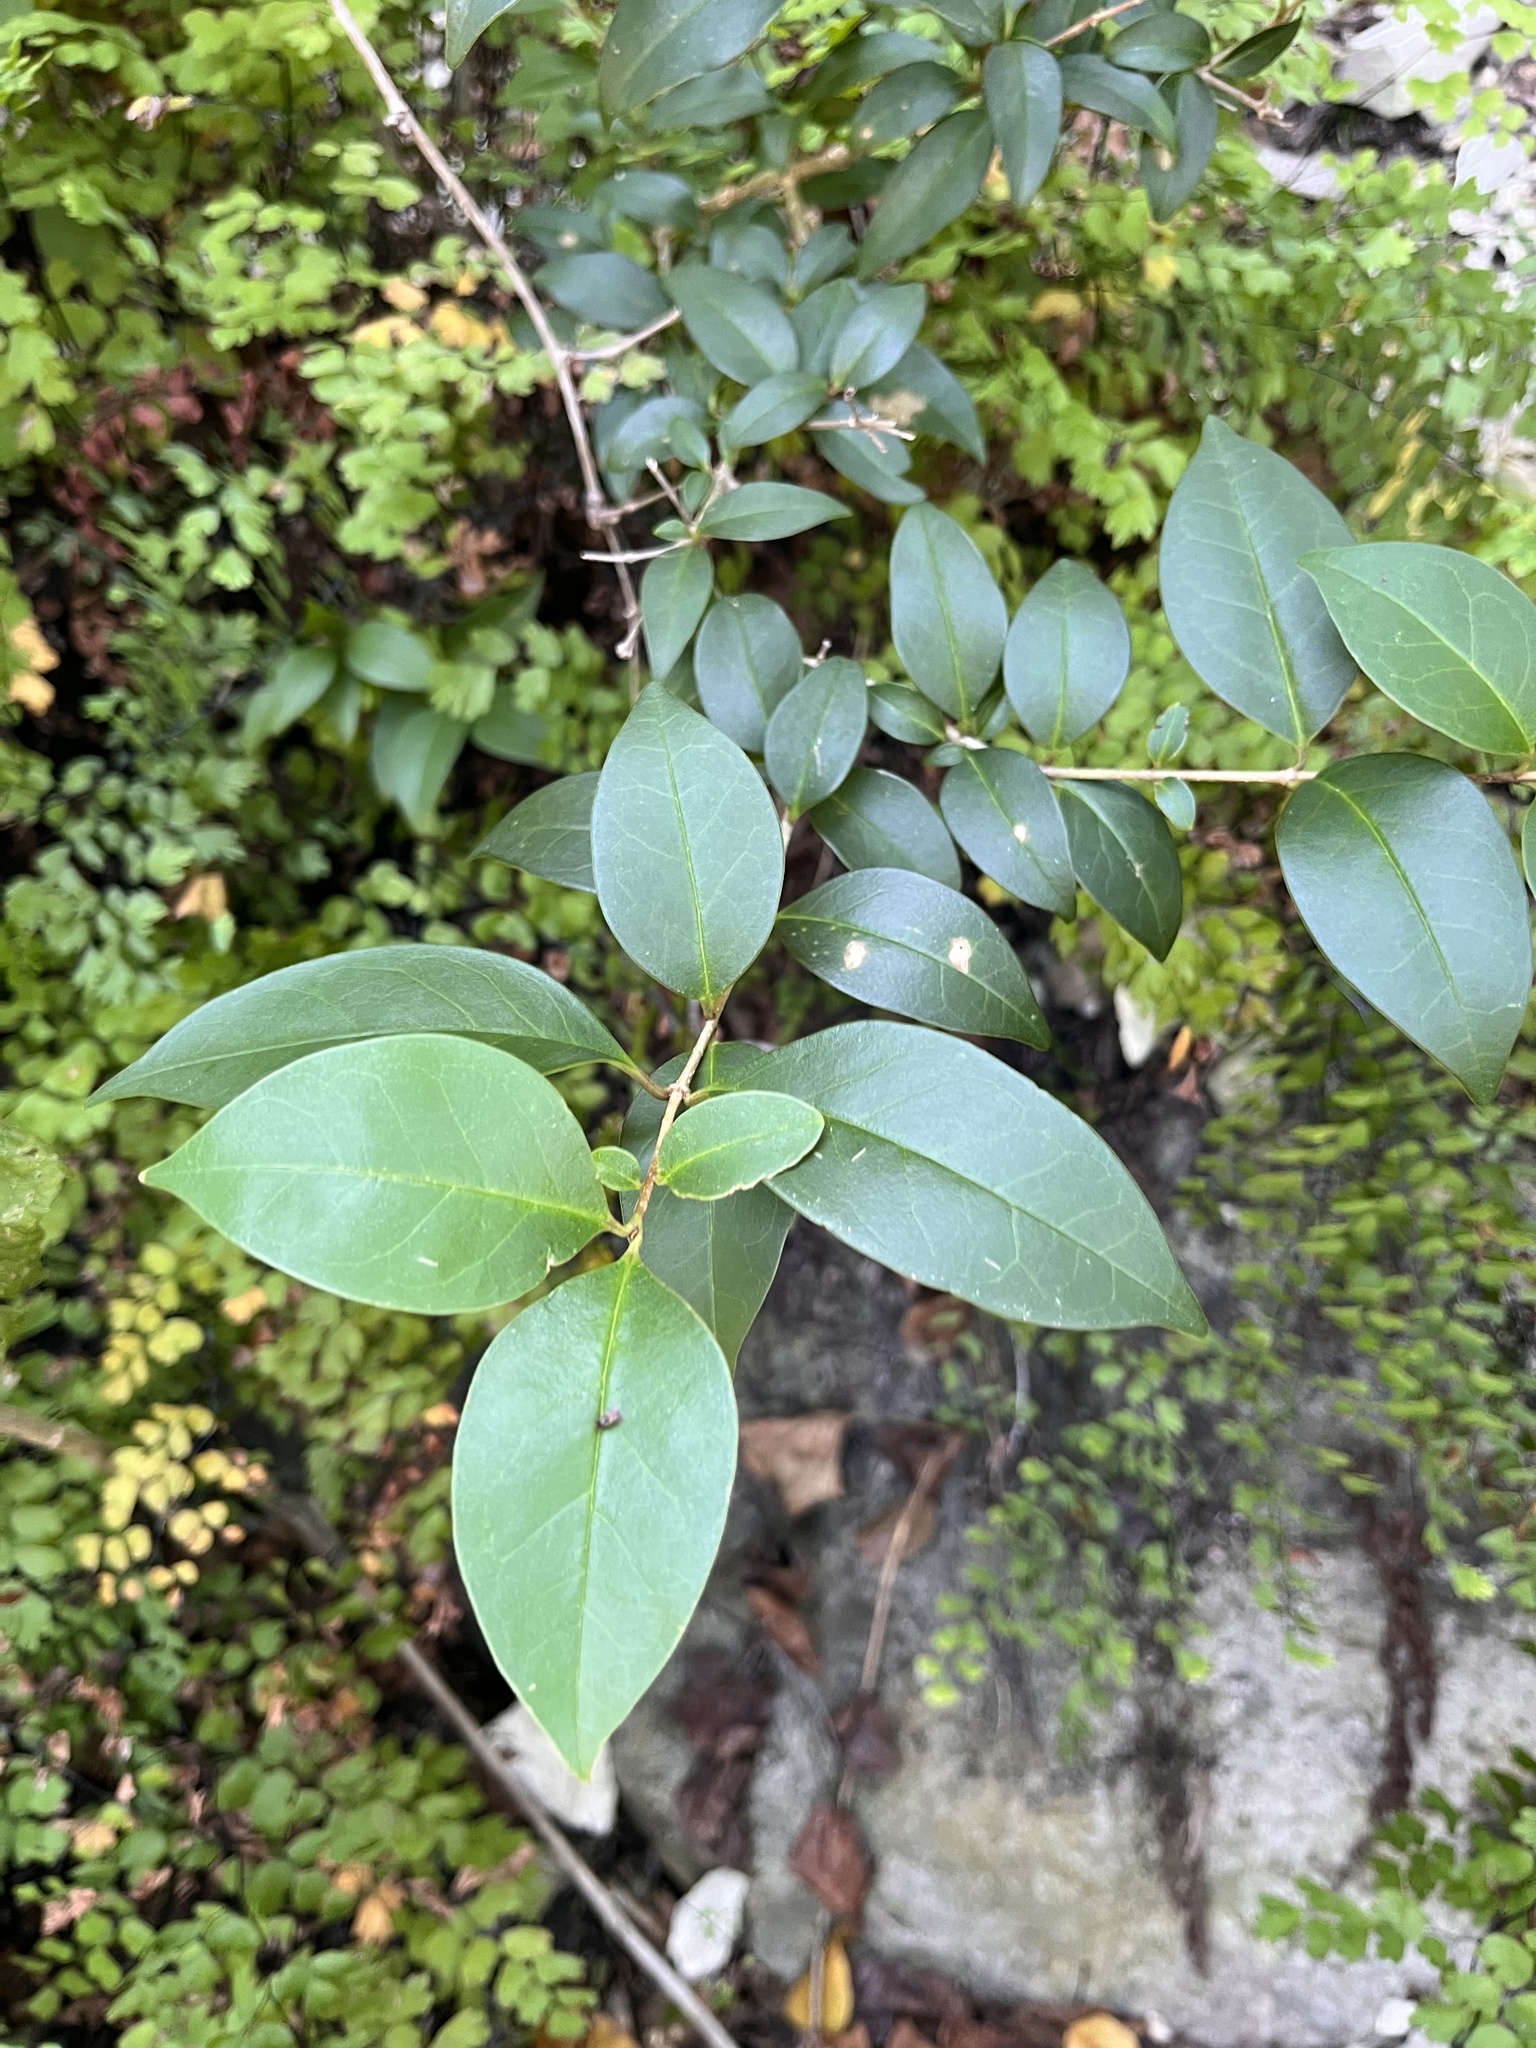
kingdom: Plantae
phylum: Tracheophyta
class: Magnoliopsida
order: Lamiales
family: Oleaceae
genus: Ligustrum
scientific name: Ligustrum lucidum
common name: Glossy privet
